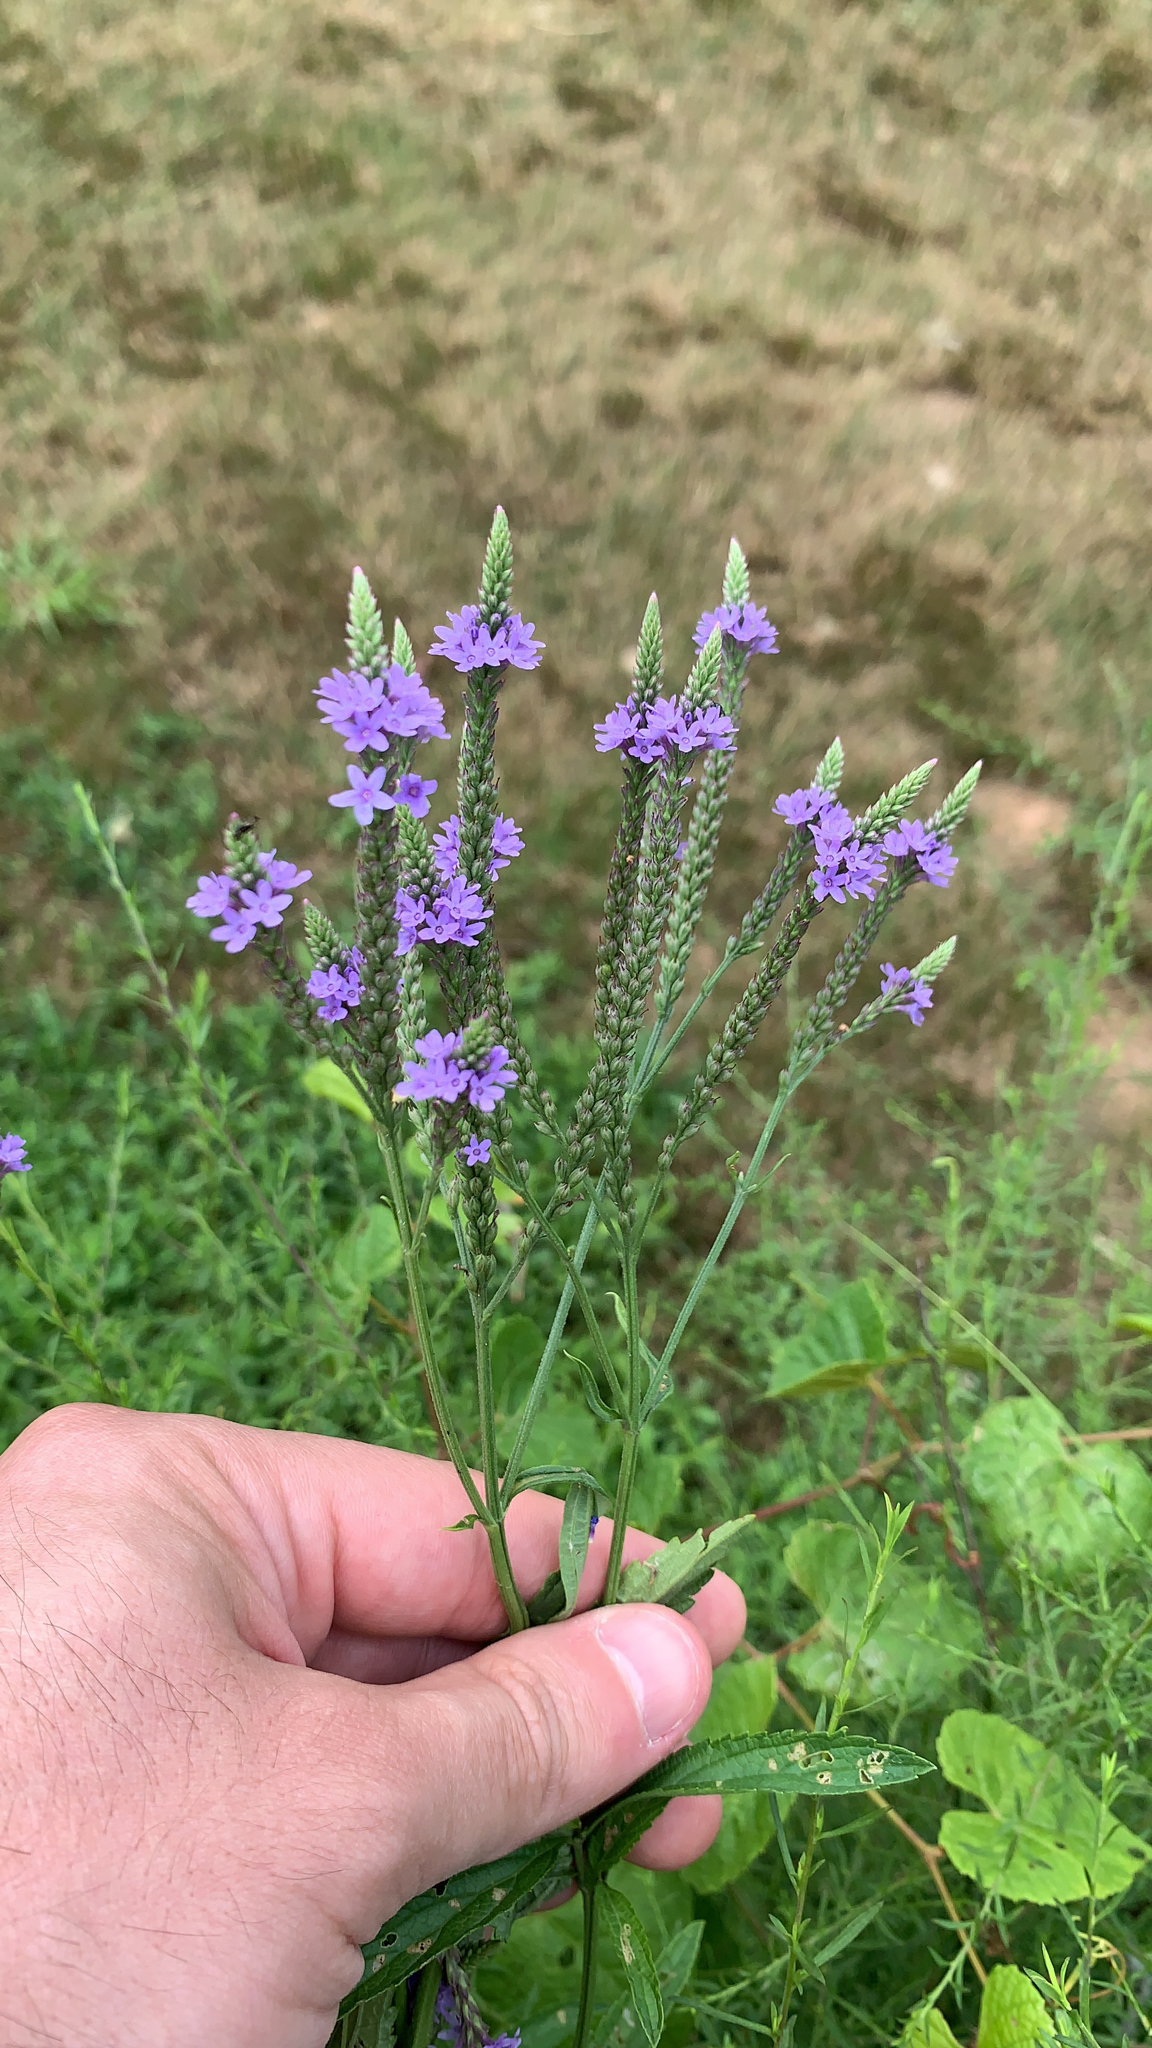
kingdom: Plantae
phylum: Tracheophyta
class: Magnoliopsida
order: Lamiales
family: Verbenaceae
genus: Verbena
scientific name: Verbena hastata
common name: American blue vervain
